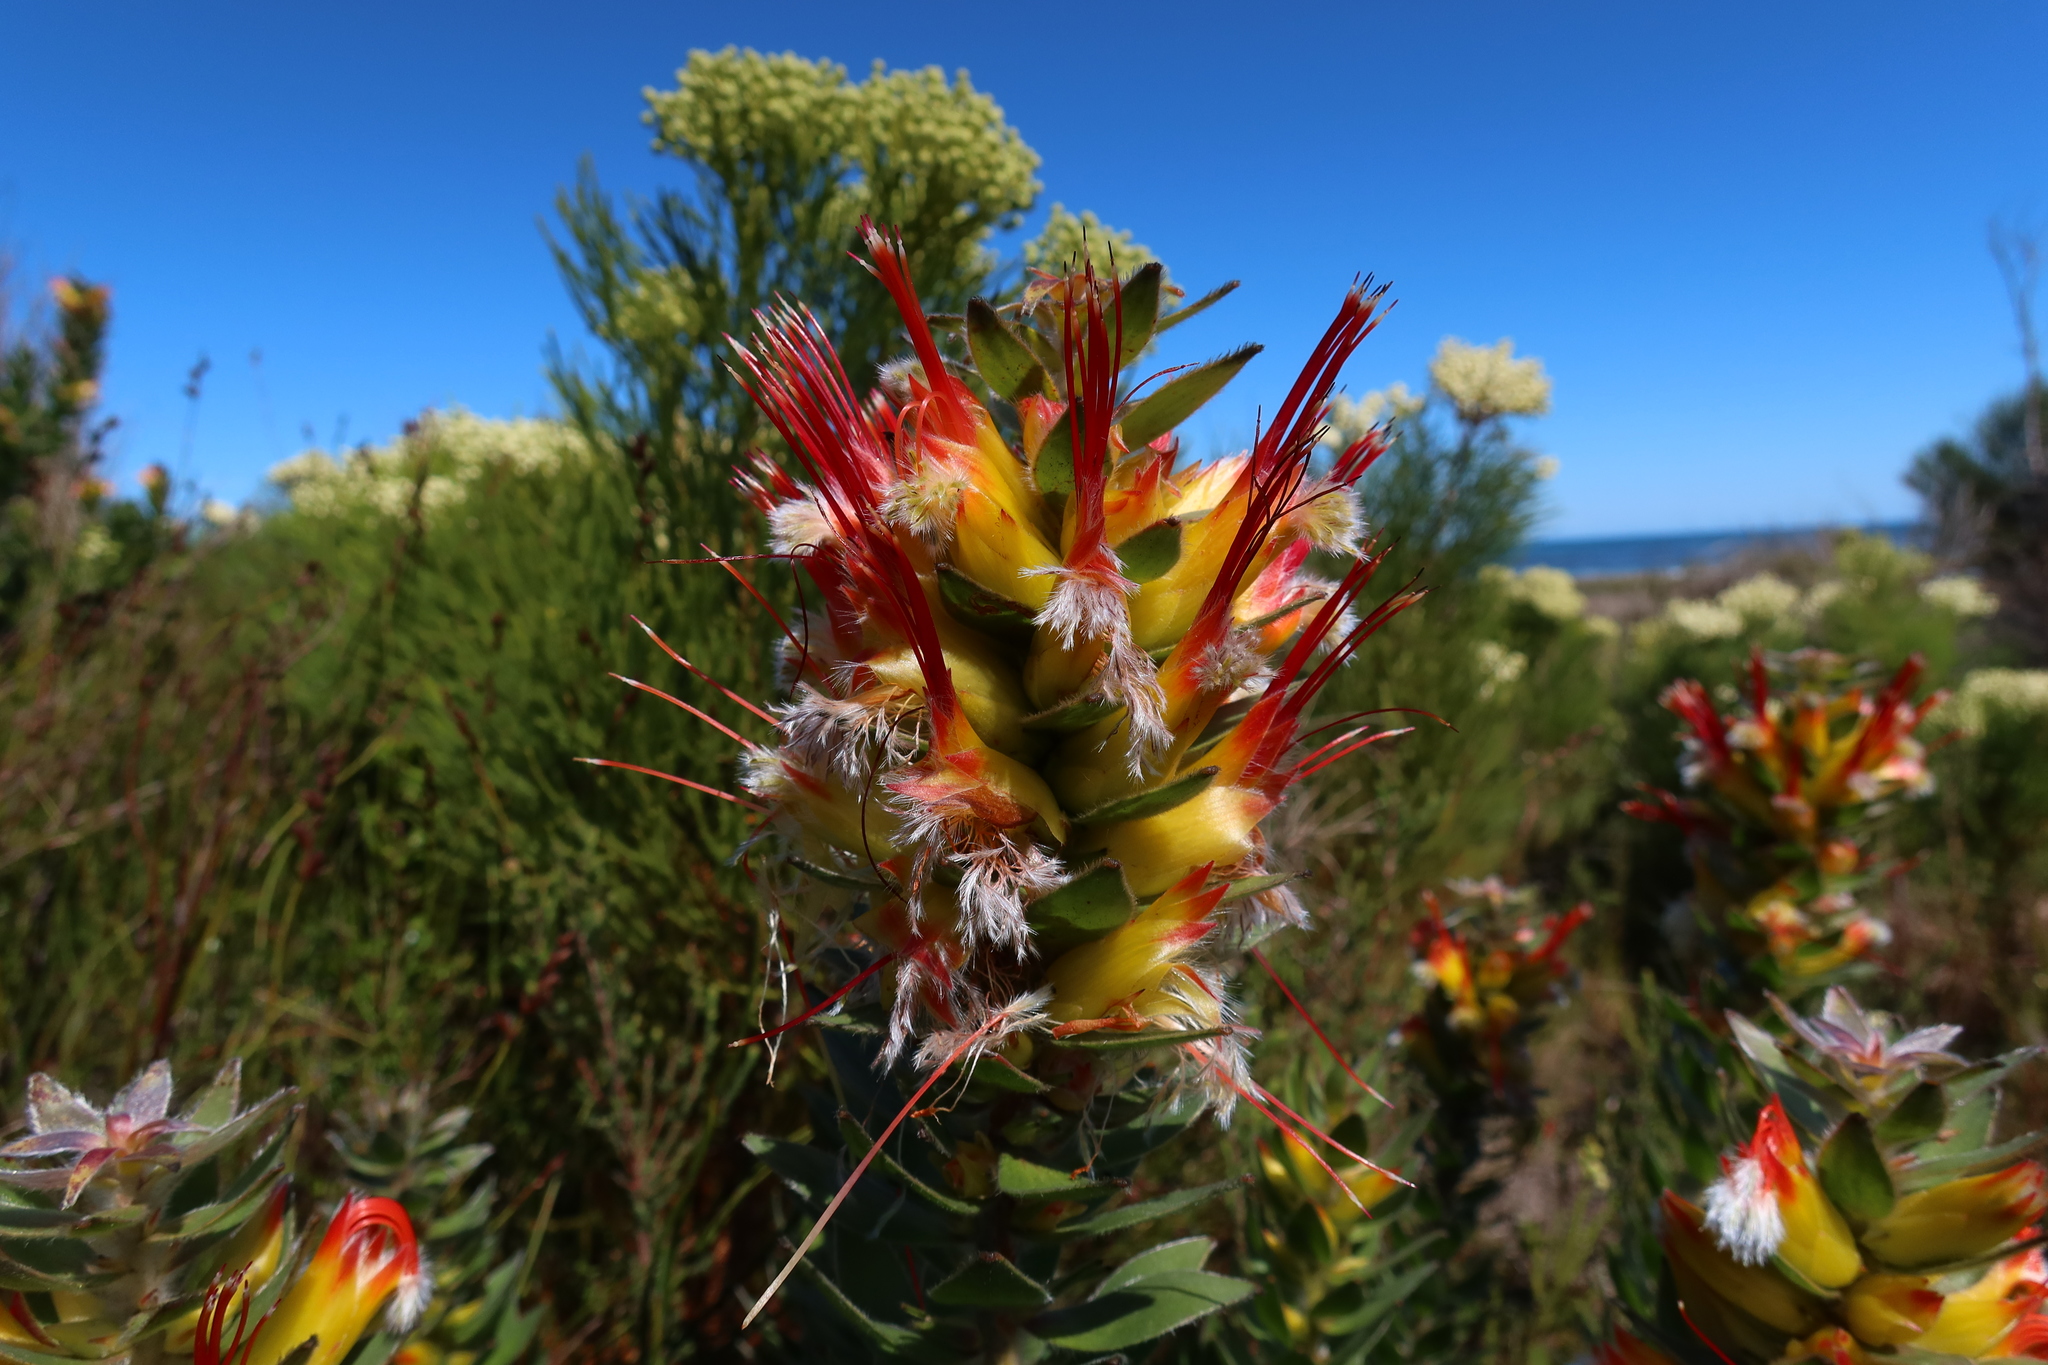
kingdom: Plantae
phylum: Tracheophyta
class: Magnoliopsida
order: Proteales
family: Proteaceae
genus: Mimetes
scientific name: Mimetes hirtus
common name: Marsh pagoda
